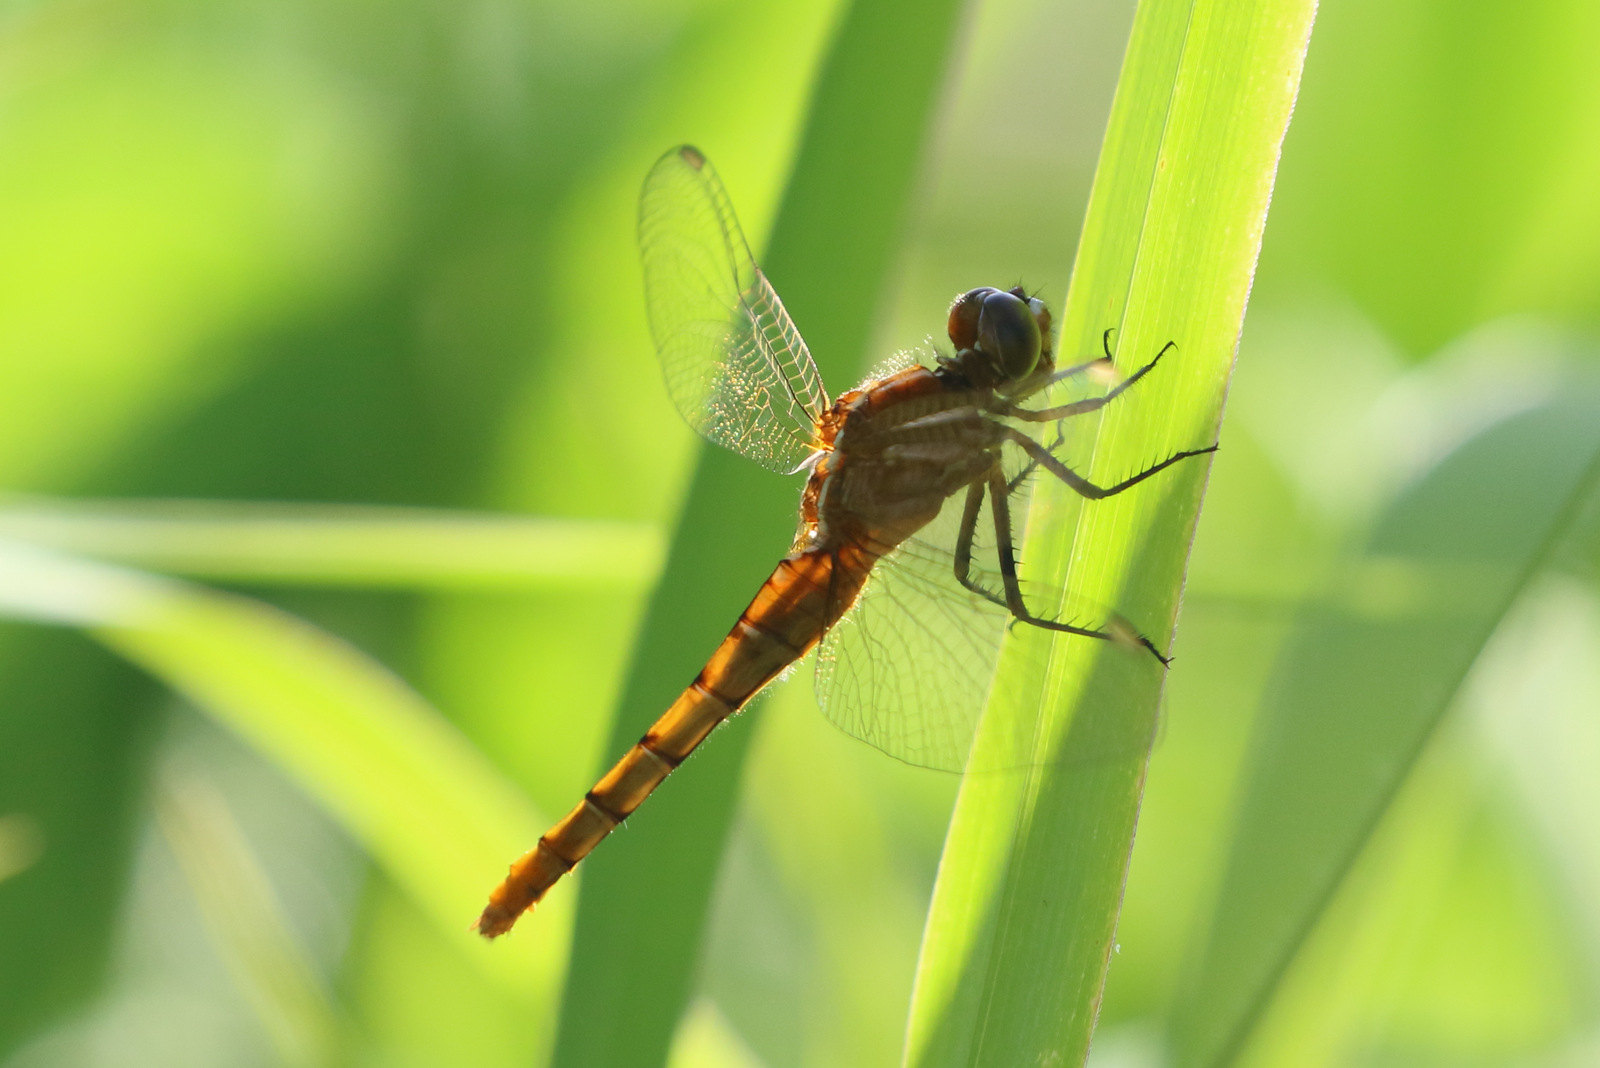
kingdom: Animalia
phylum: Arthropoda
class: Insecta
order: Odonata
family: Libellulidae
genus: Rhodothemis
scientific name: Rhodothemis lieftincki
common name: Red arrow
